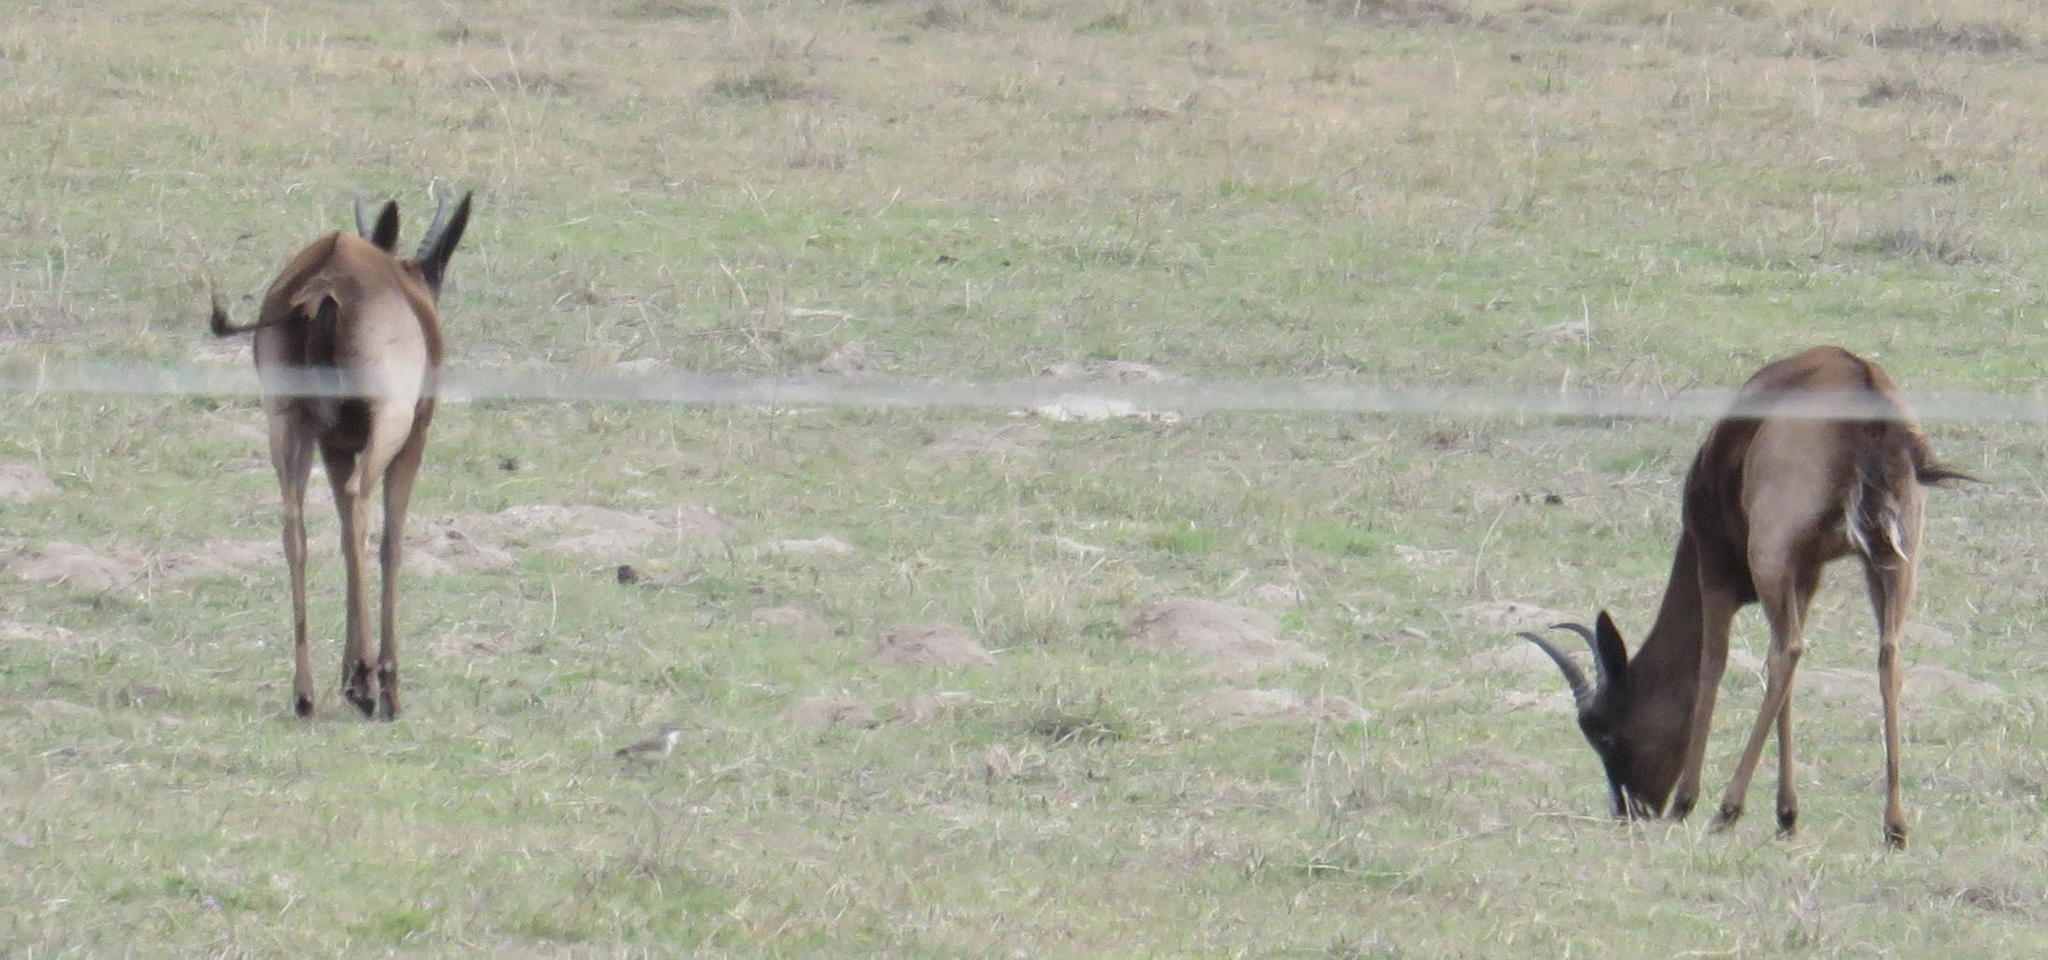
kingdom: Animalia
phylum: Chordata
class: Mammalia
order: Artiodactyla
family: Bovidae
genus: Antidorcas
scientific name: Antidorcas marsupialis
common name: Springbok
